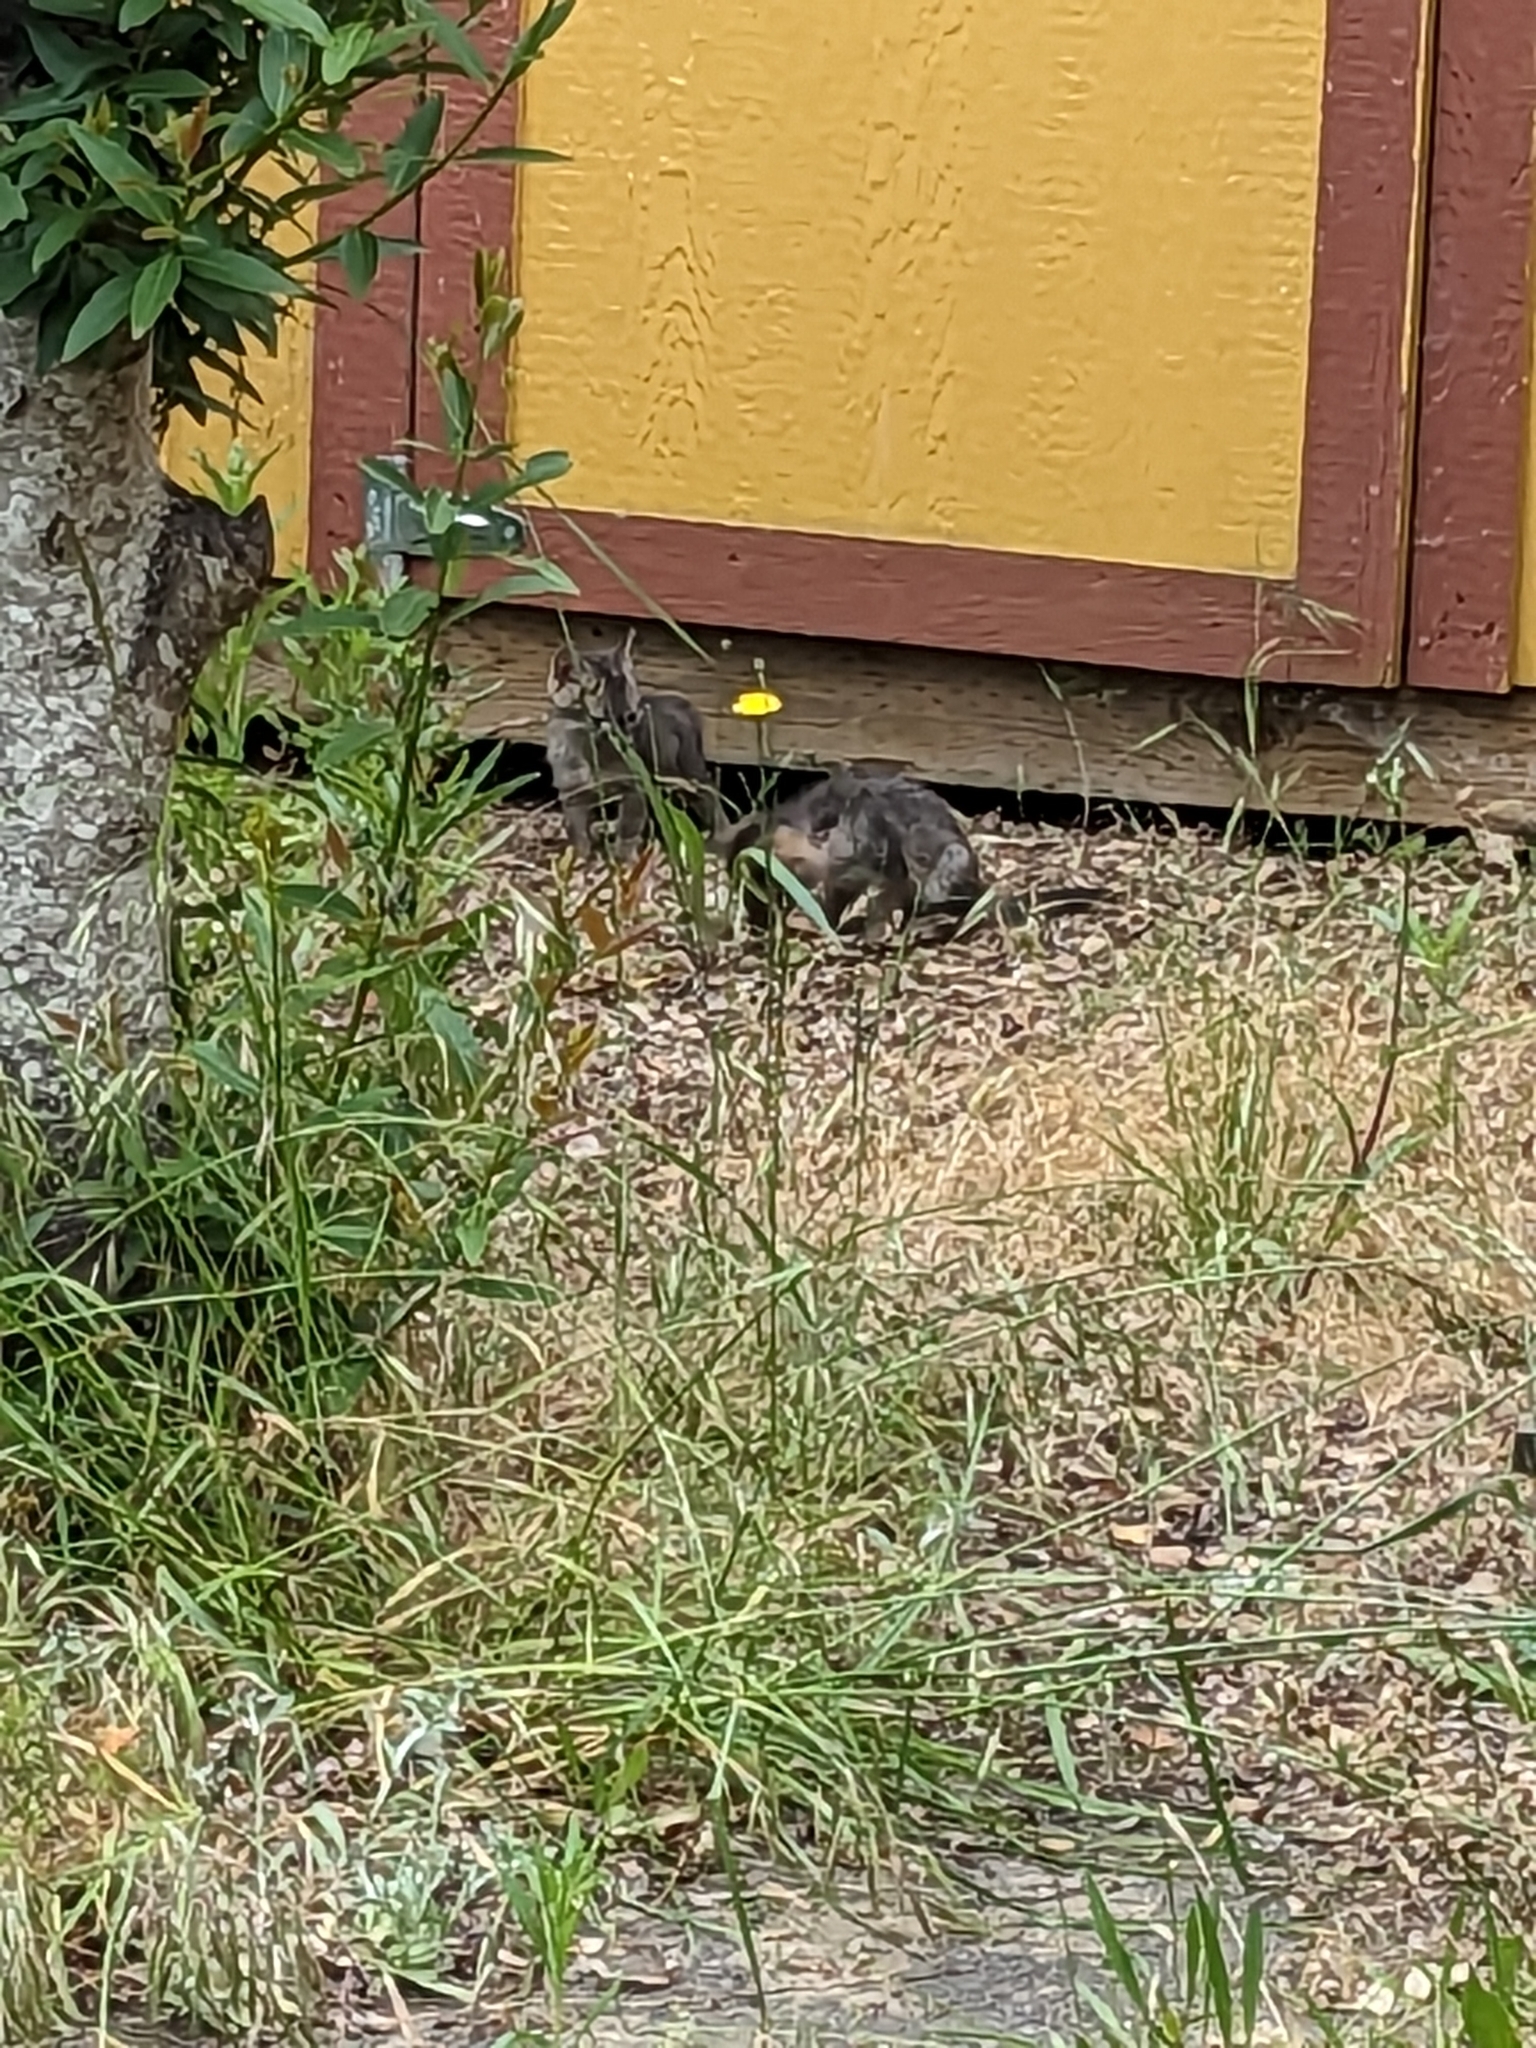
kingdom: Animalia
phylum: Chordata
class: Mammalia
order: Carnivora
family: Canidae
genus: Urocyon
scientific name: Urocyon cinereoargenteus
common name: Gray fox
